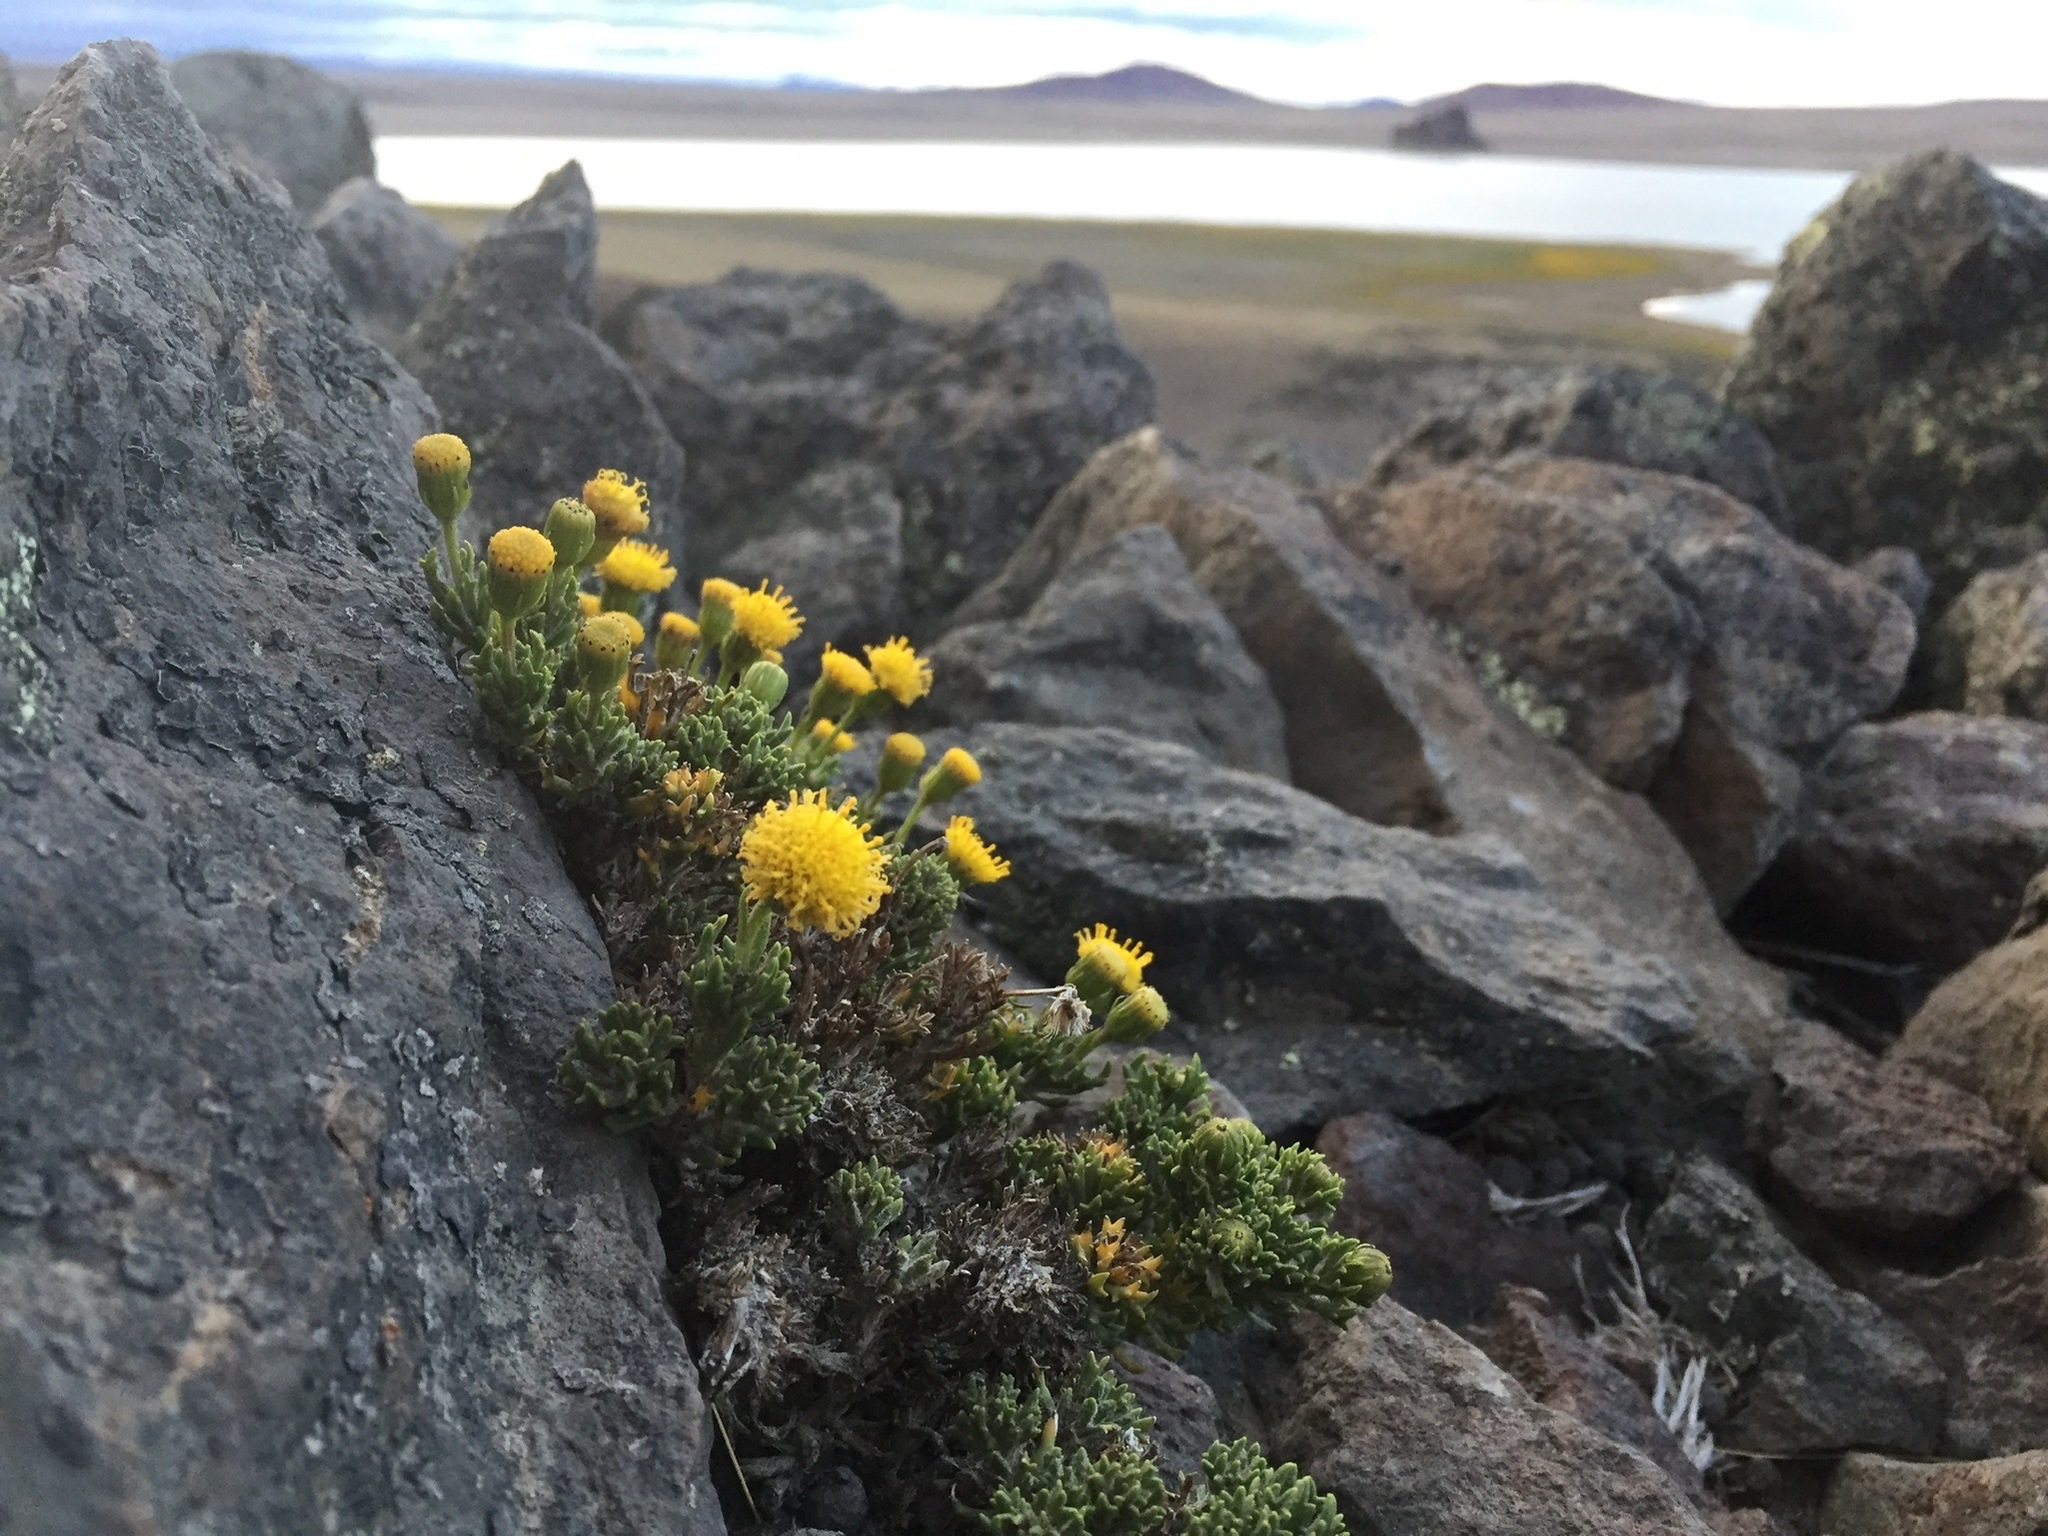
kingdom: Plantae
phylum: Tracheophyta
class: Magnoliopsida
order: Asterales
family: Asteraceae
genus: Senecio
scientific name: Senecio tricuspidatus
